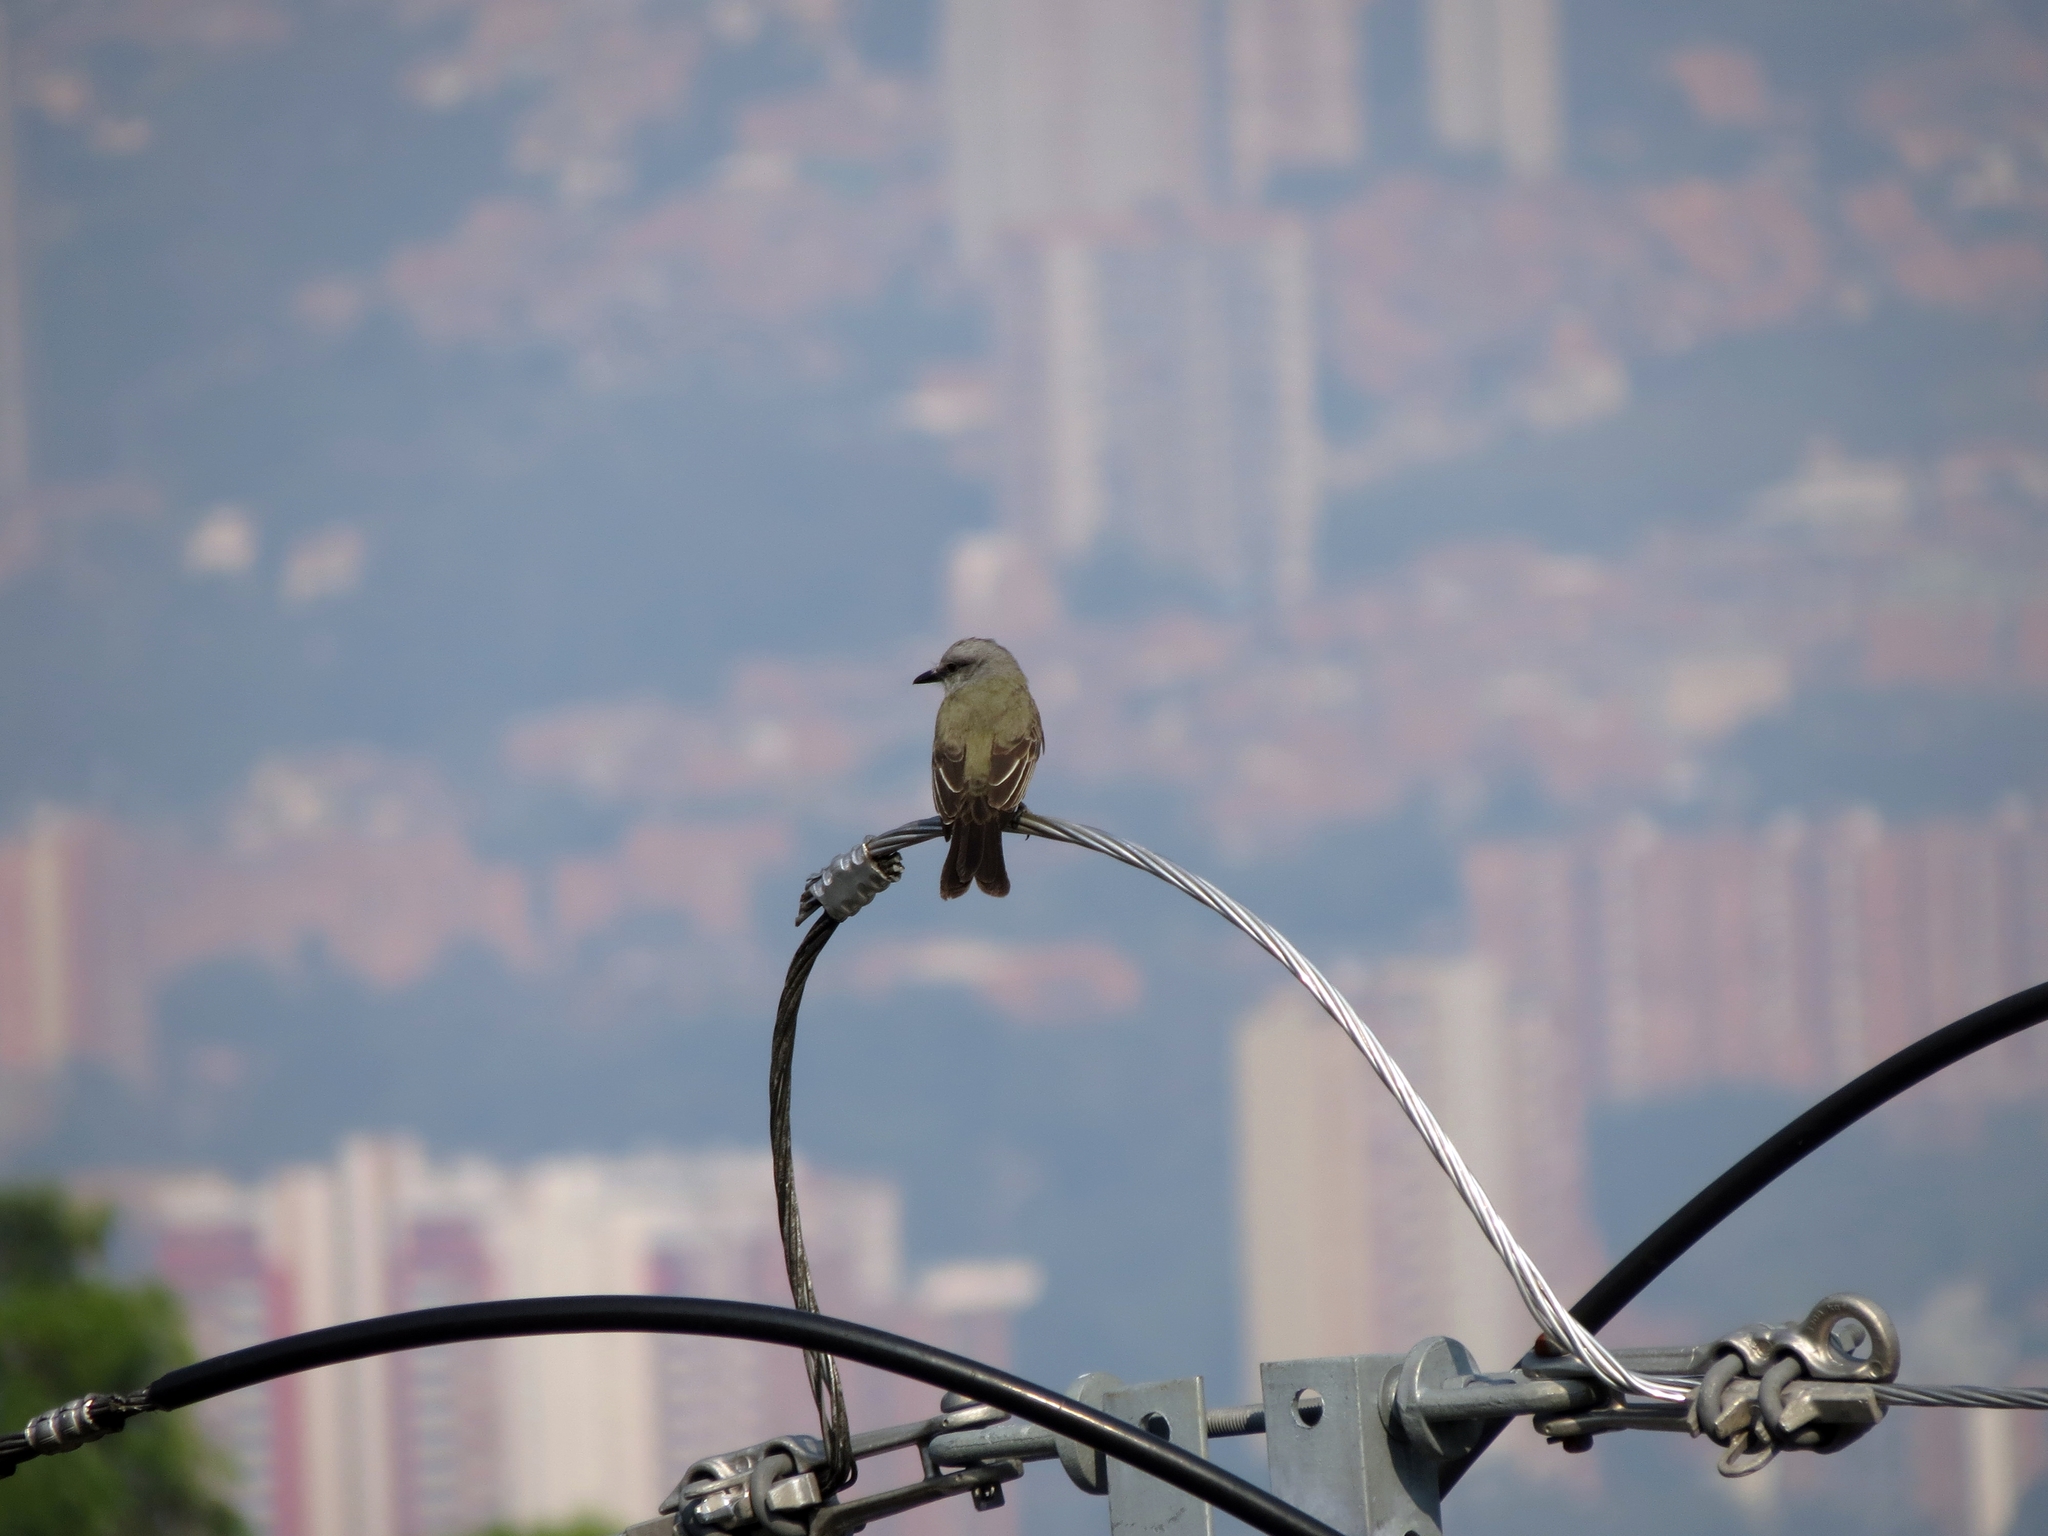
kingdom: Animalia
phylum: Chordata
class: Aves
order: Passeriformes
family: Tyrannidae
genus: Tyrannus
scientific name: Tyrannus melancholicus
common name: Tropical kingbird
